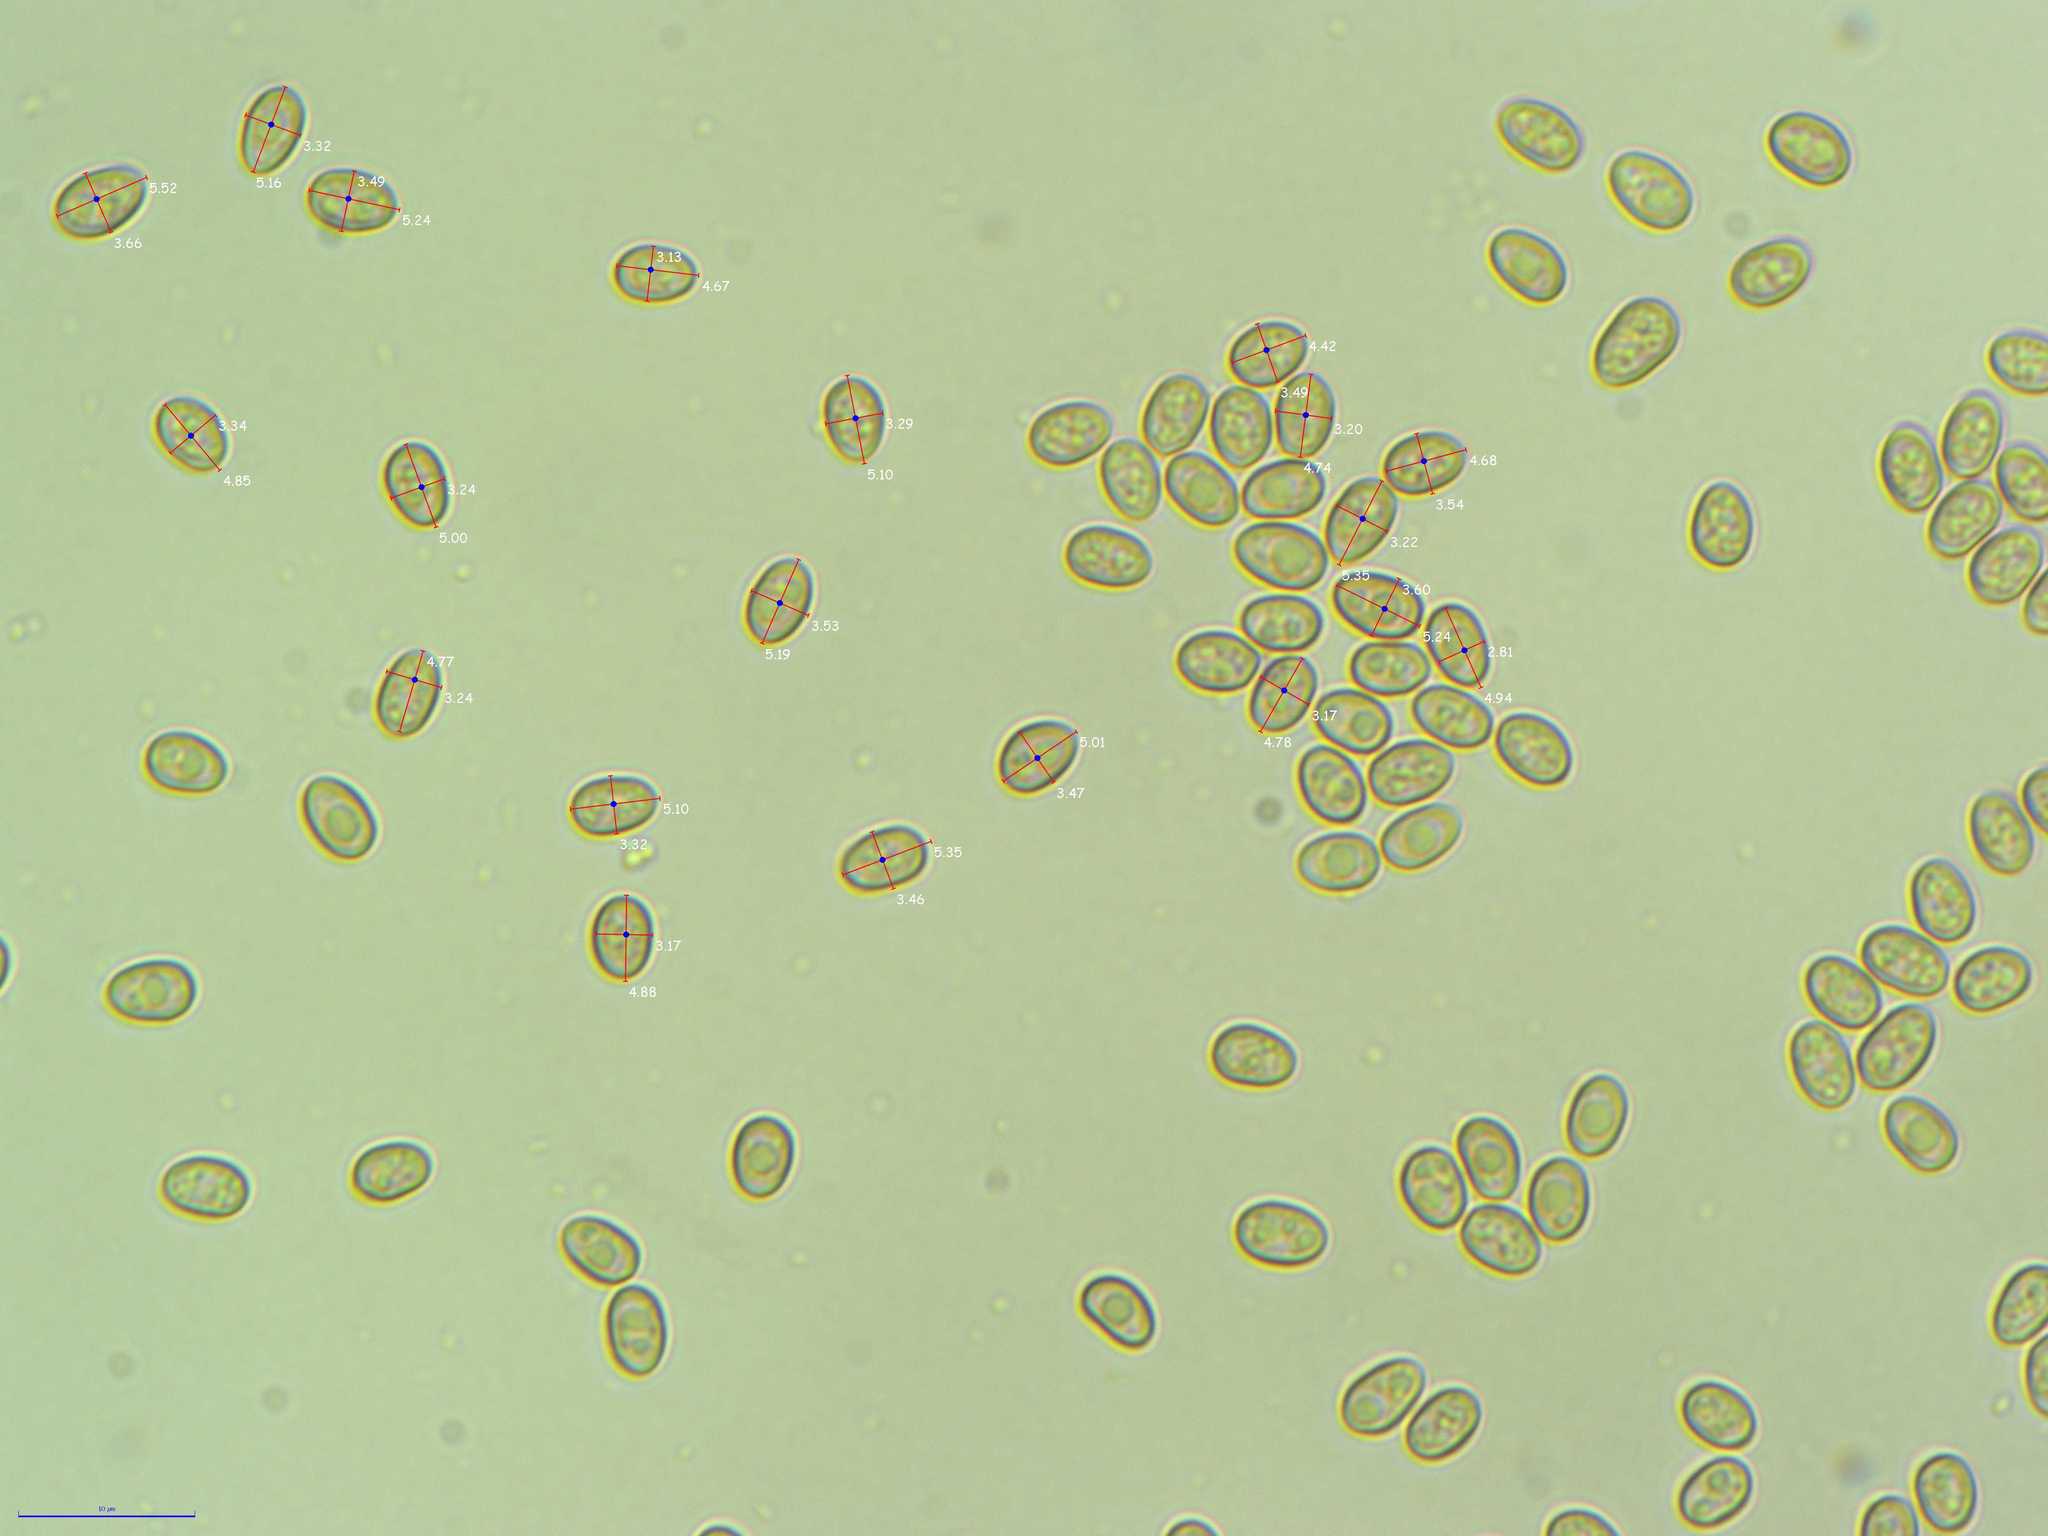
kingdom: Fungi
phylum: Basidiomycota
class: Agaricomycetes
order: Agaricales
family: Strophariaceae
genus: Pholiota
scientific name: Pholiota squarrosoides
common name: Sharp-scaly pholiota
